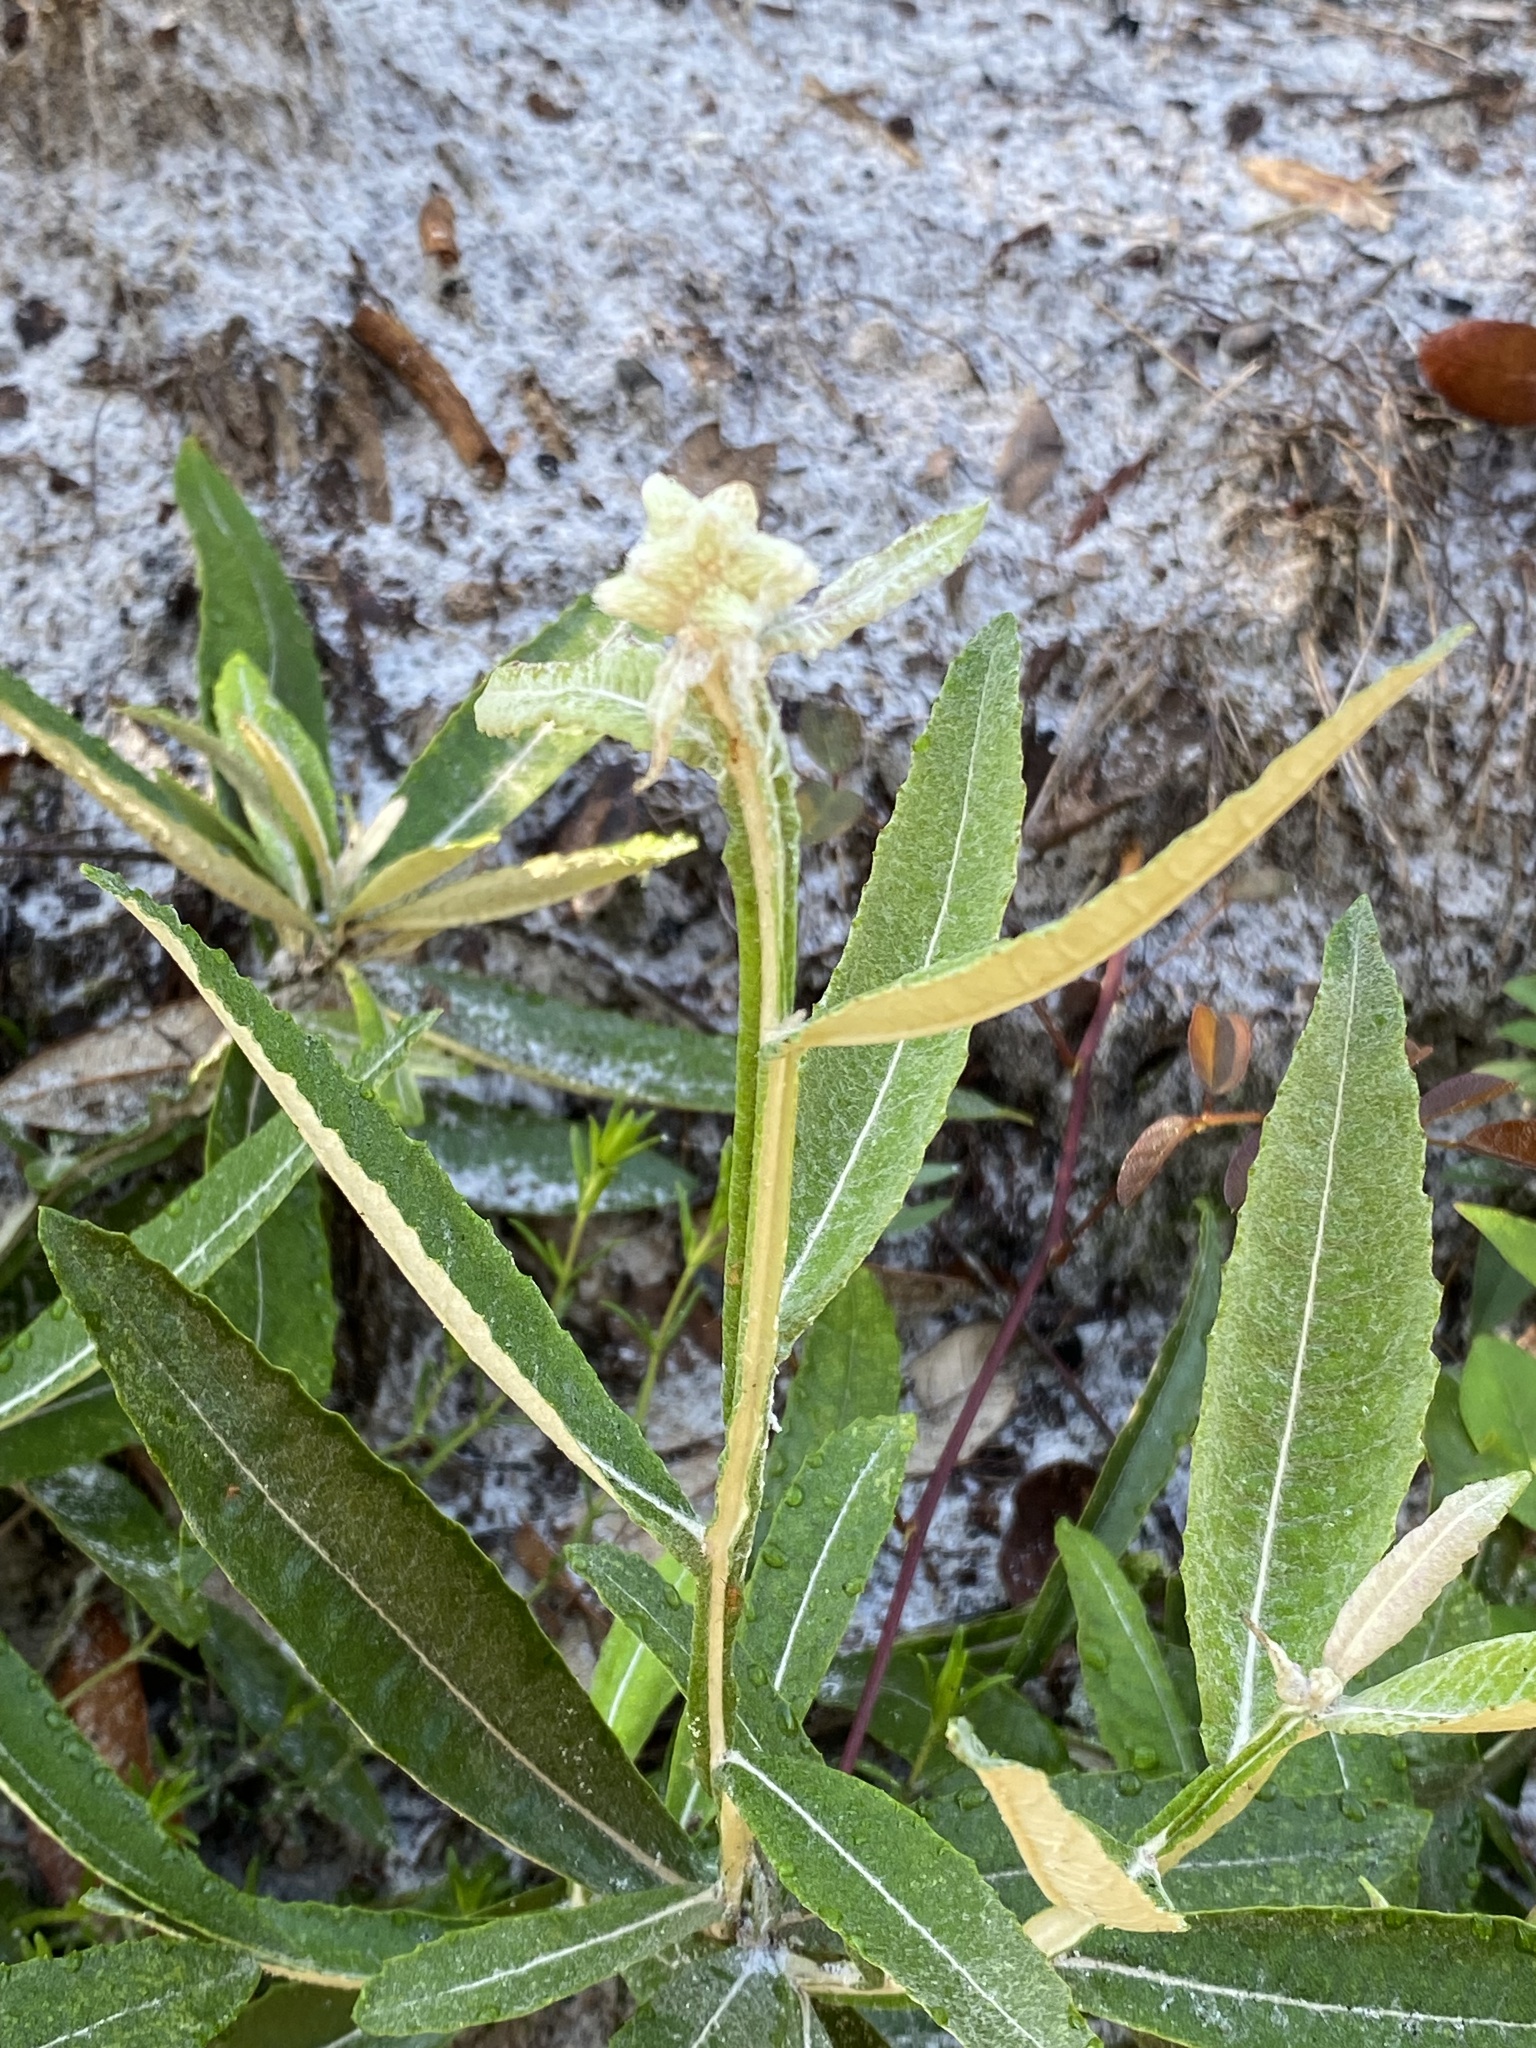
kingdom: Plantae
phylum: Tracheophyta
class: Magnoliopsida
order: Asterales
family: Asteraceae
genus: Pterocaulon
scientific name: Pterocaulon pycnostachyum
